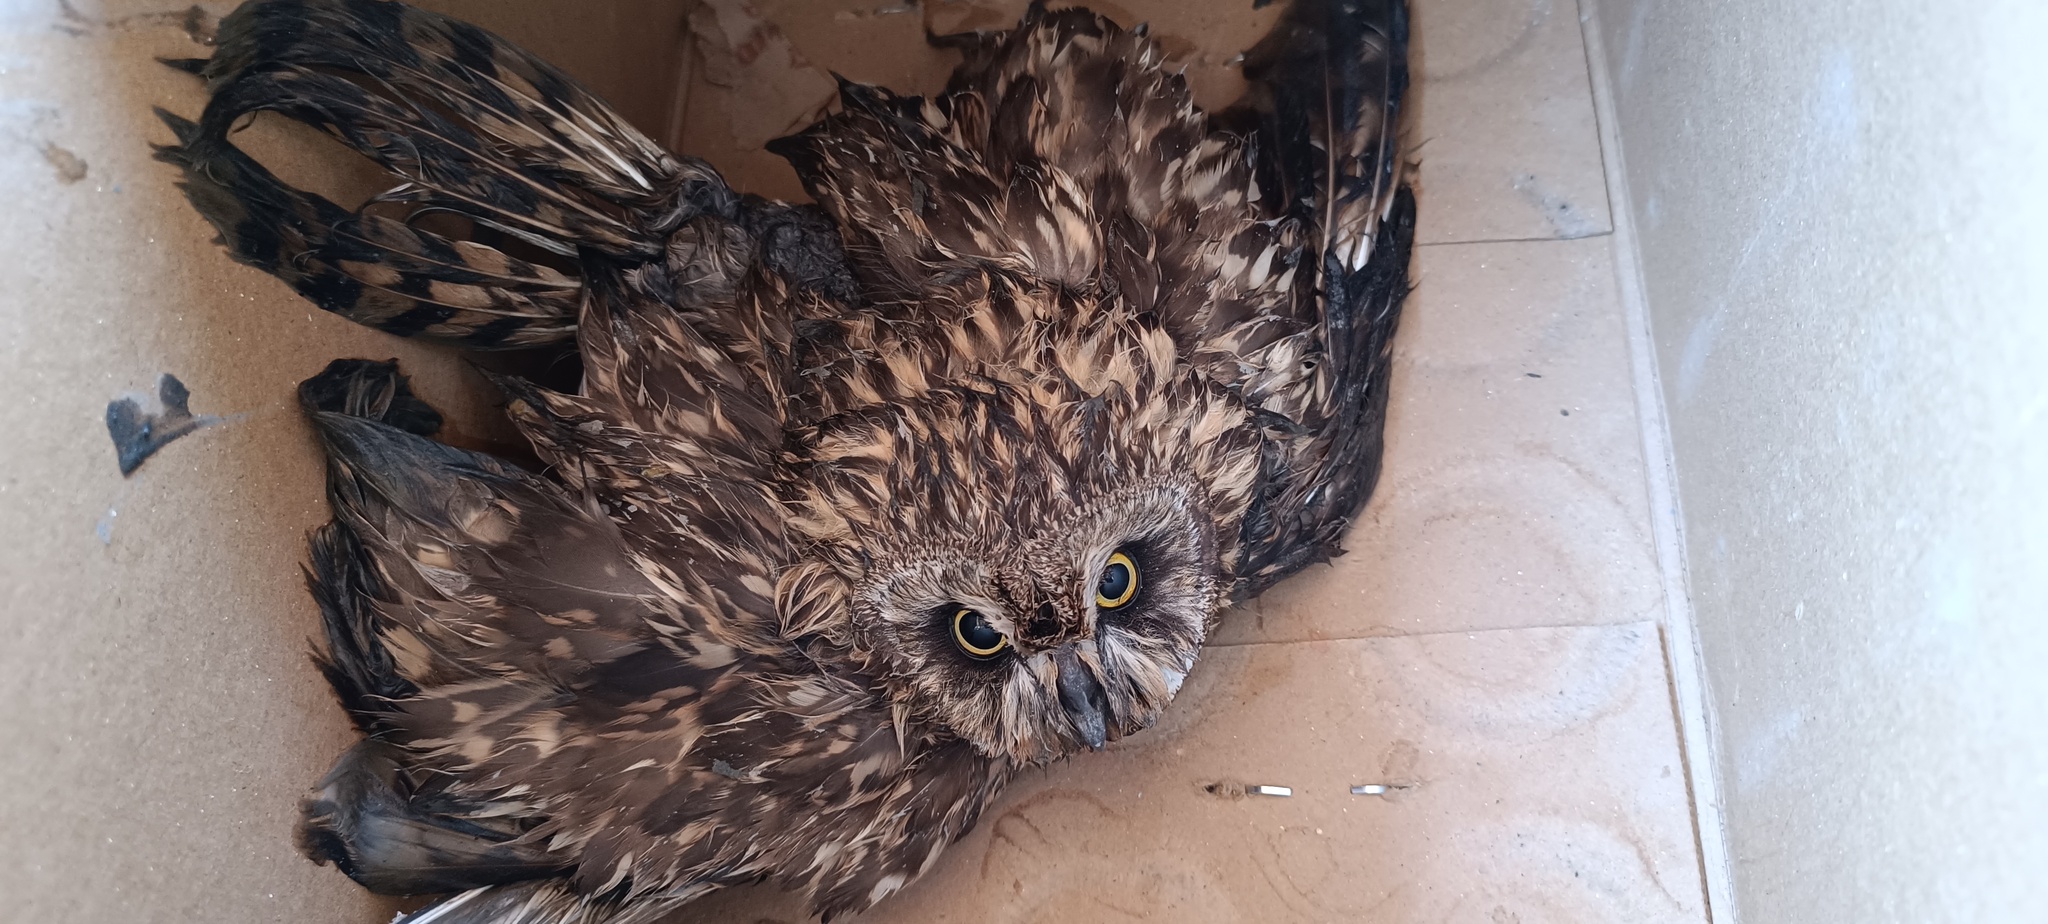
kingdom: Animalia
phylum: Chordata
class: Aves
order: Strigiformes
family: Strigidae
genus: Asio
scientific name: Asio flammeus
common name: Short-eared owl
